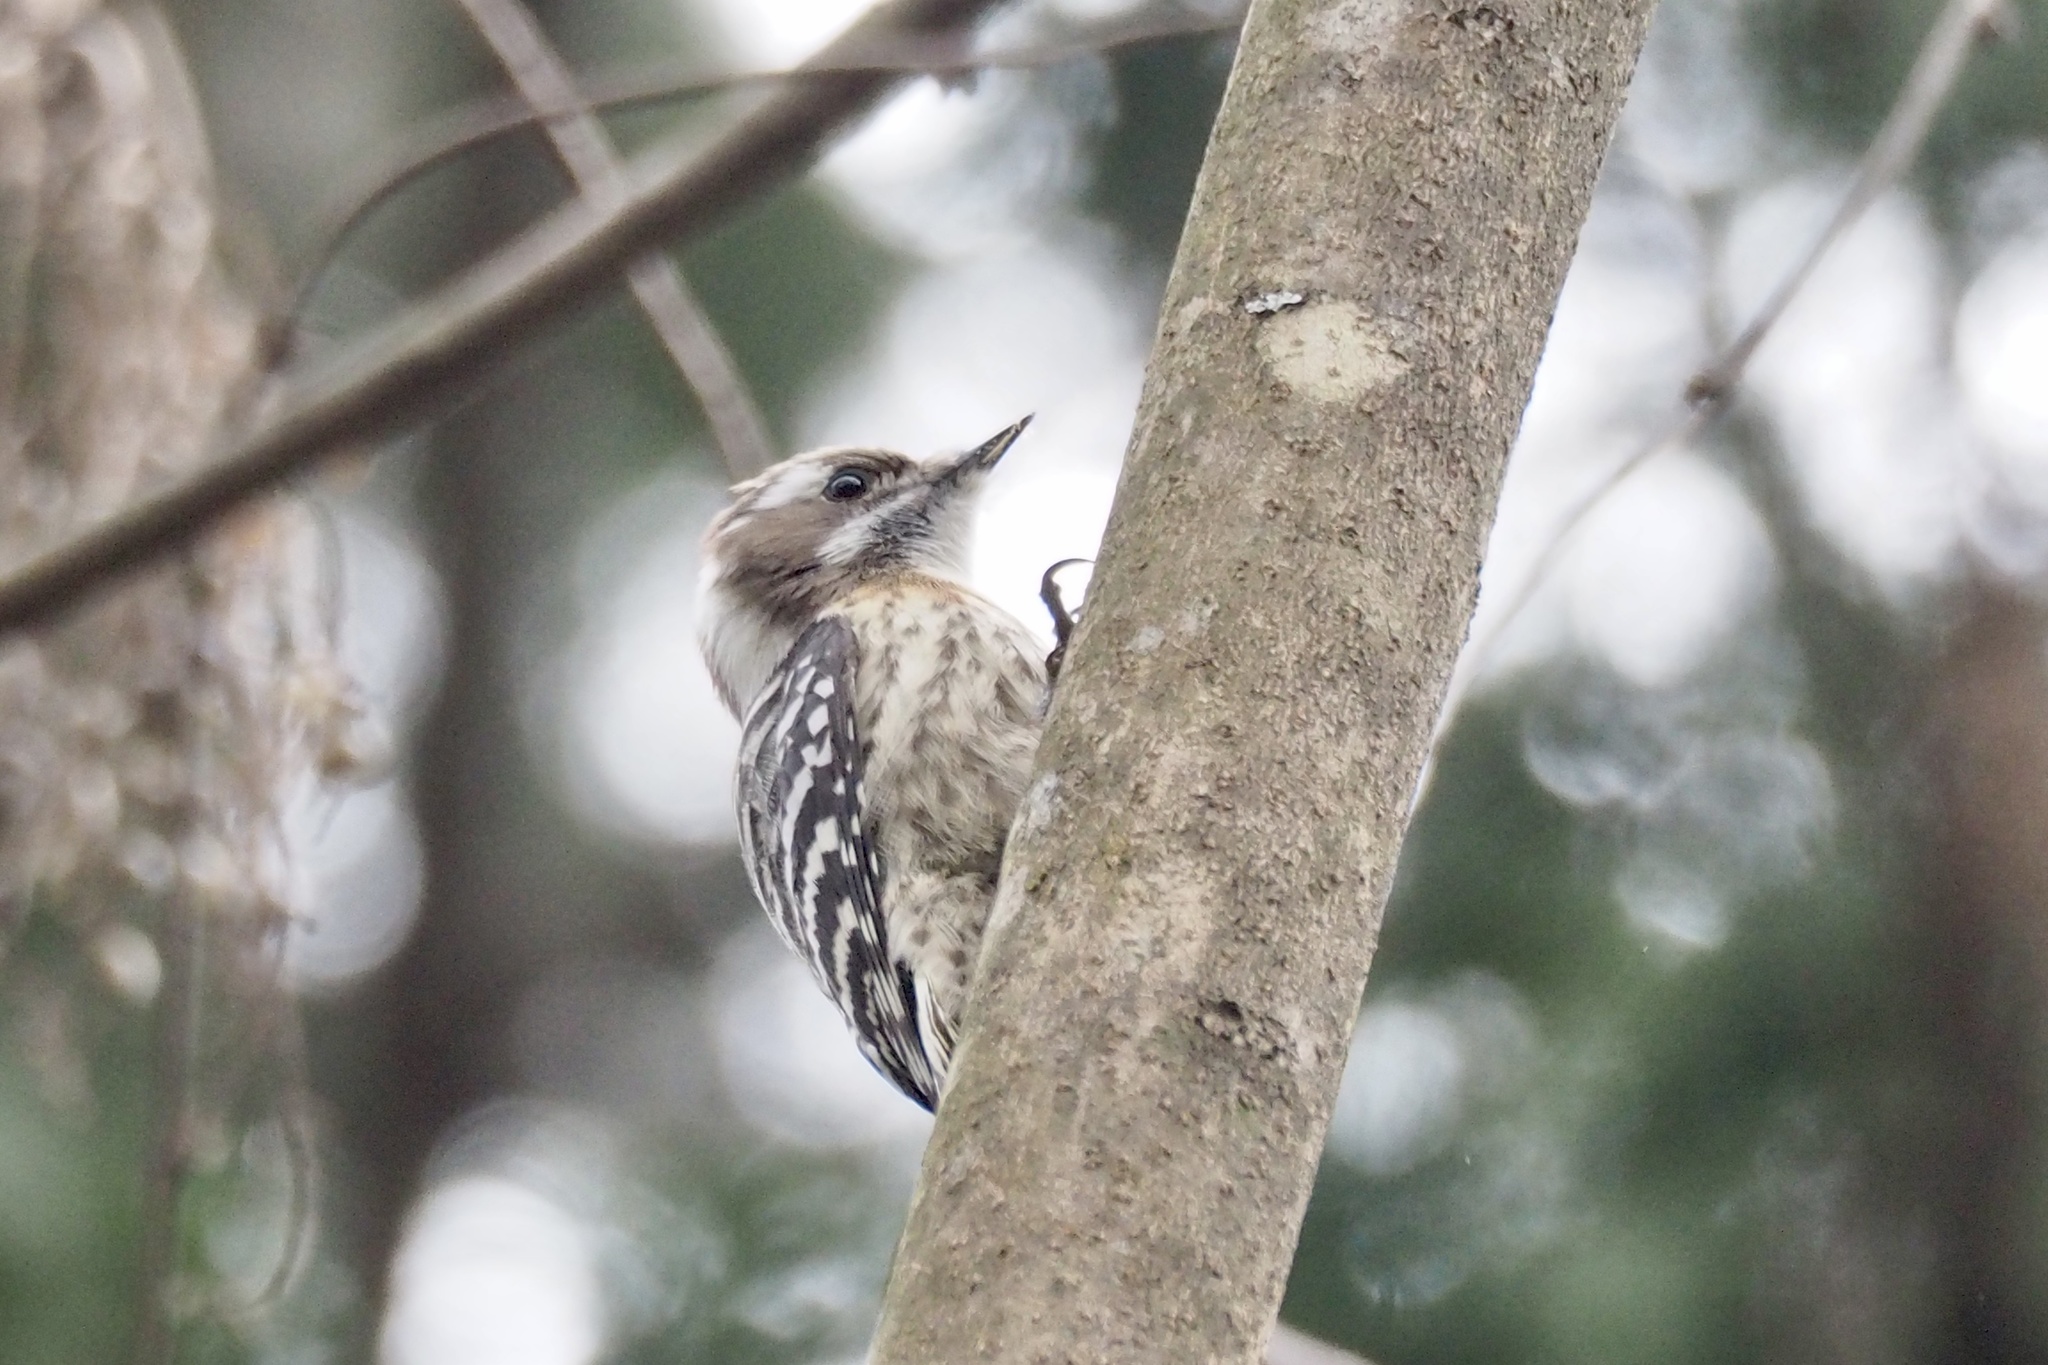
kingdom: Animalia
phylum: Chordata
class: Aves
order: Piciformes
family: Picidae
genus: Yungipicus
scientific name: Yungipicus kizuki
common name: Japanese pygmy woodpecker
